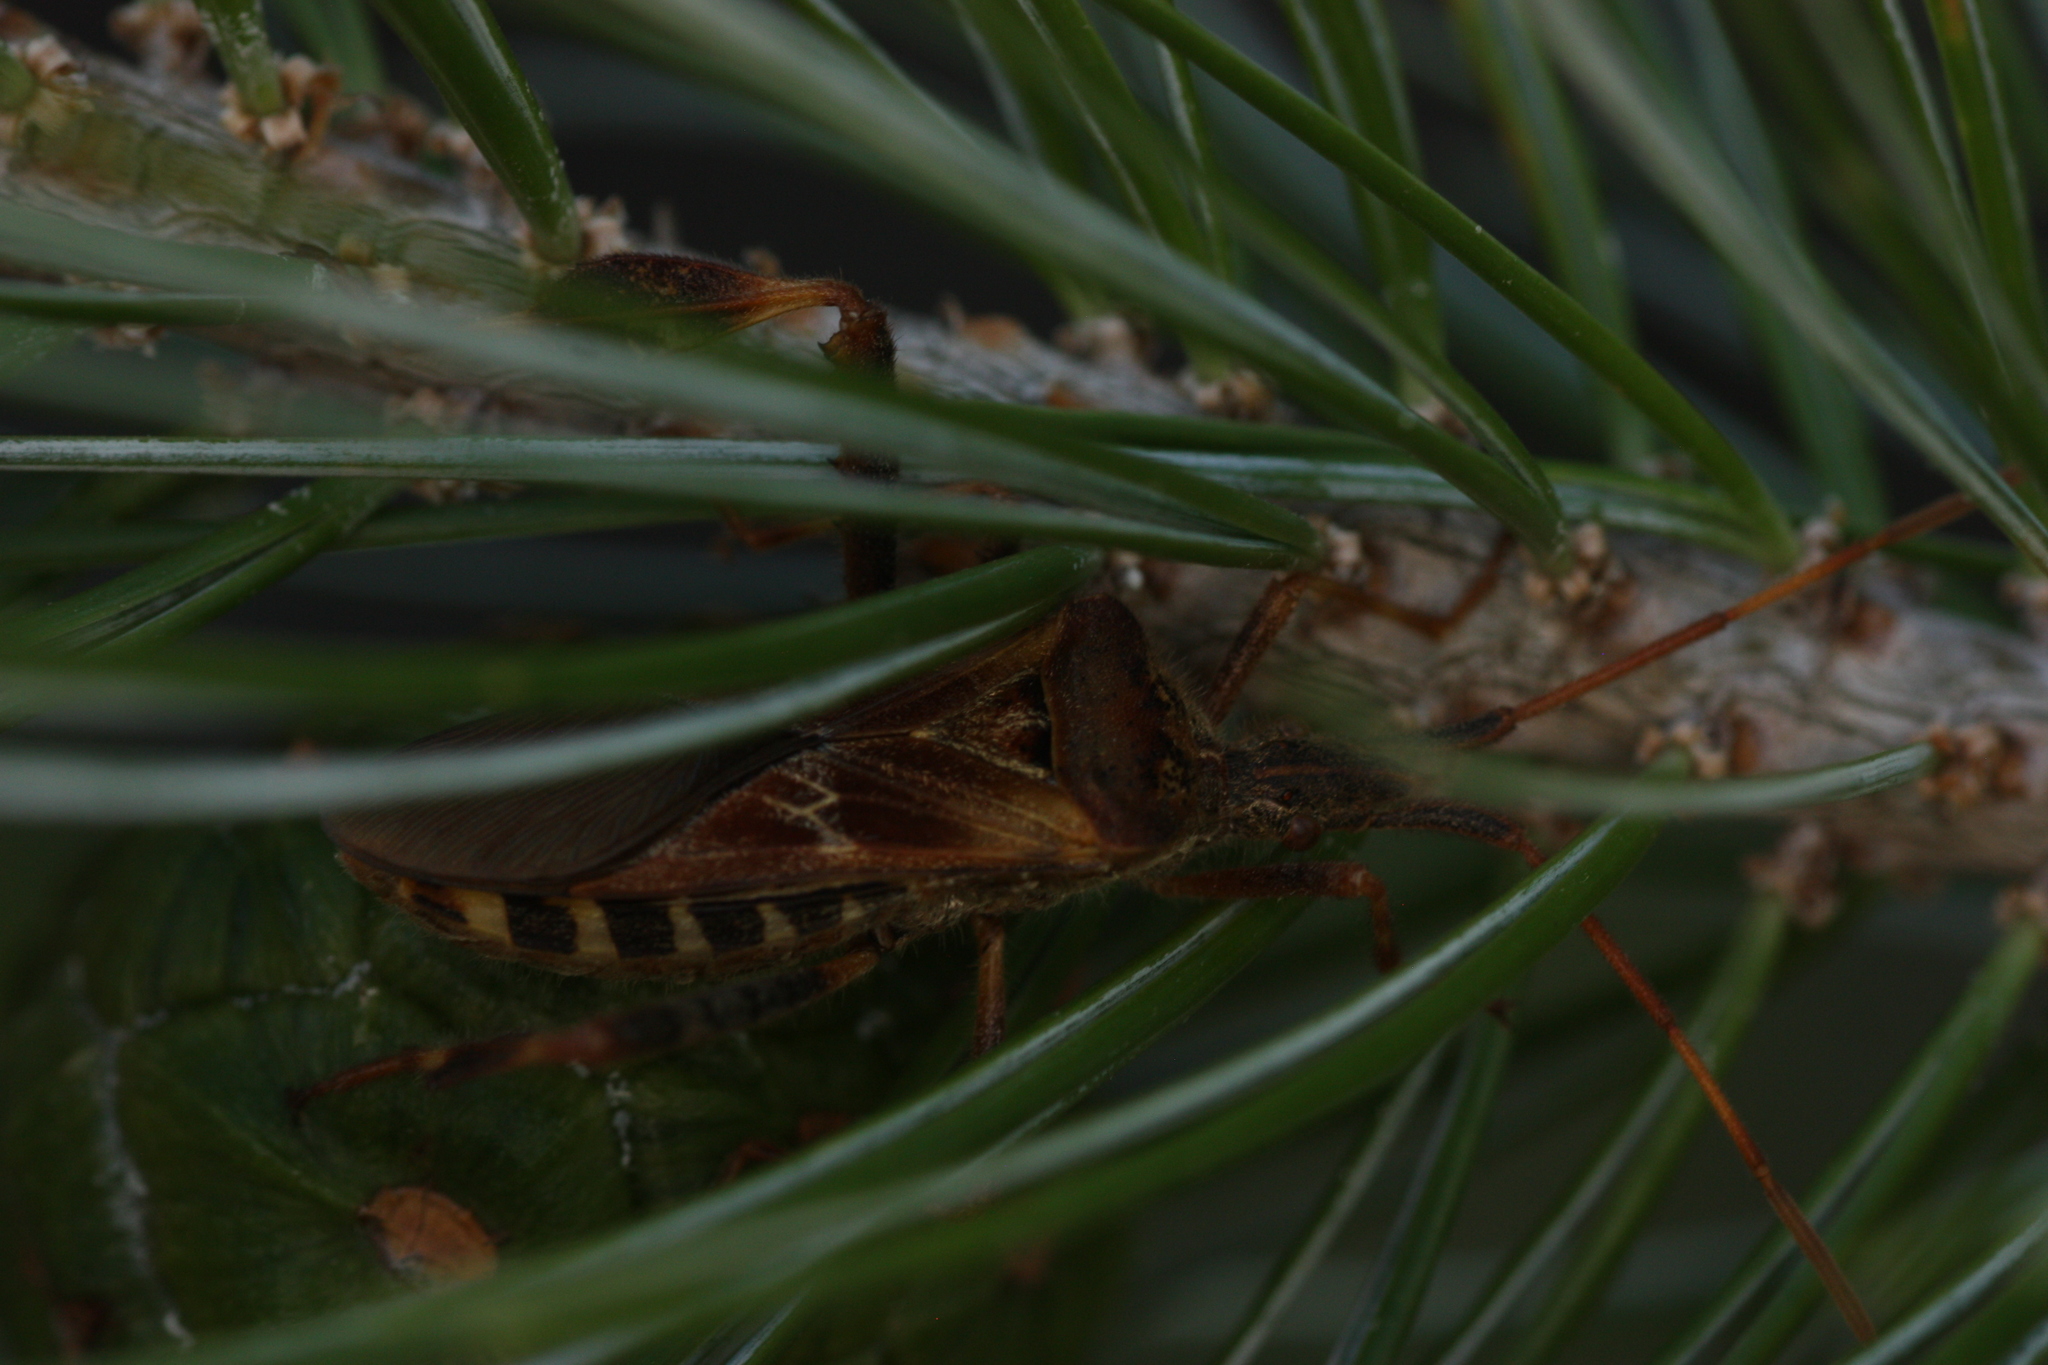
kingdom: Animalia
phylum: Arthropoda
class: Insecta
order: Hemiptera
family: Coreidae
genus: Leptoglossus
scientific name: Leptoglossus occidentalis
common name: Western conifer-seed bug
